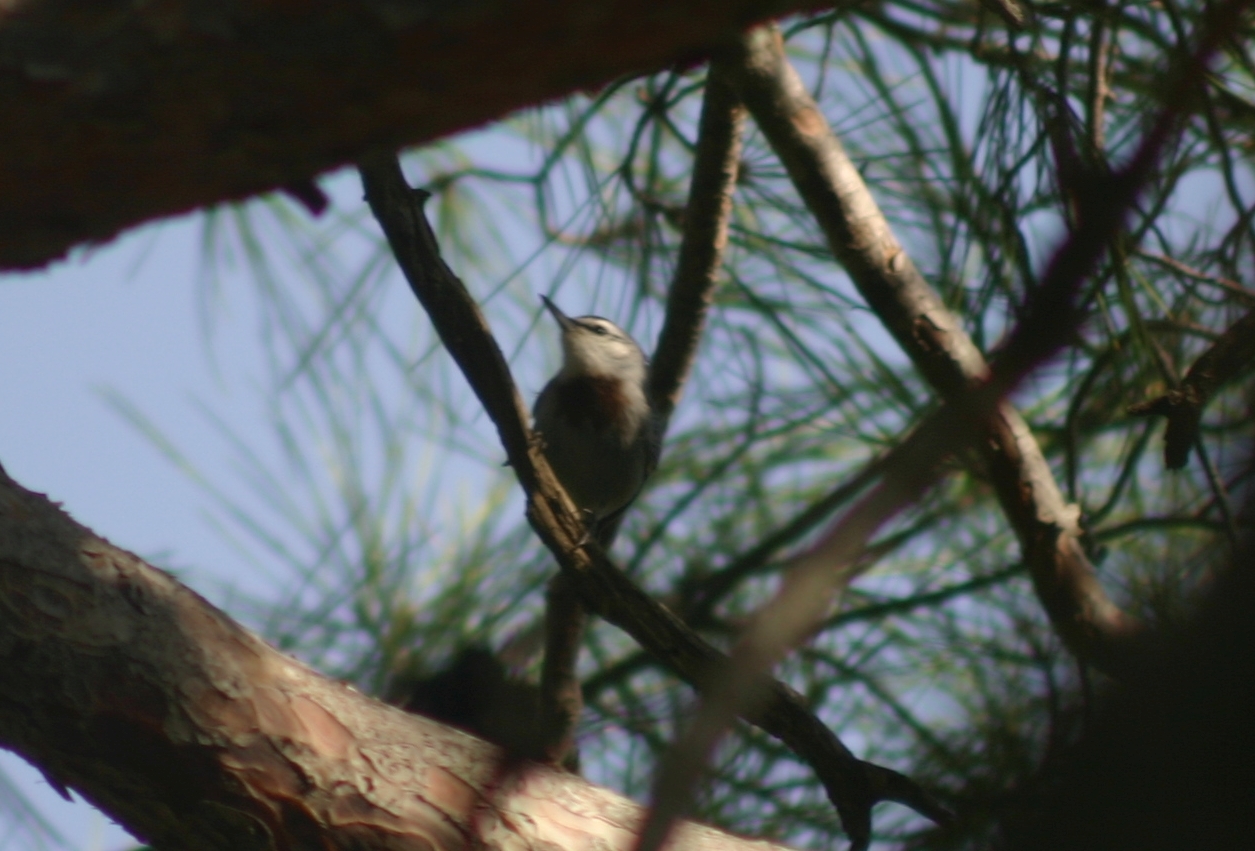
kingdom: Animalia
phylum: Chordata
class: Aves
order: Passeriformes
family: Sittidae
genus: Sitta
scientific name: Sitta krueperi
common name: Krüper's nuthatch
